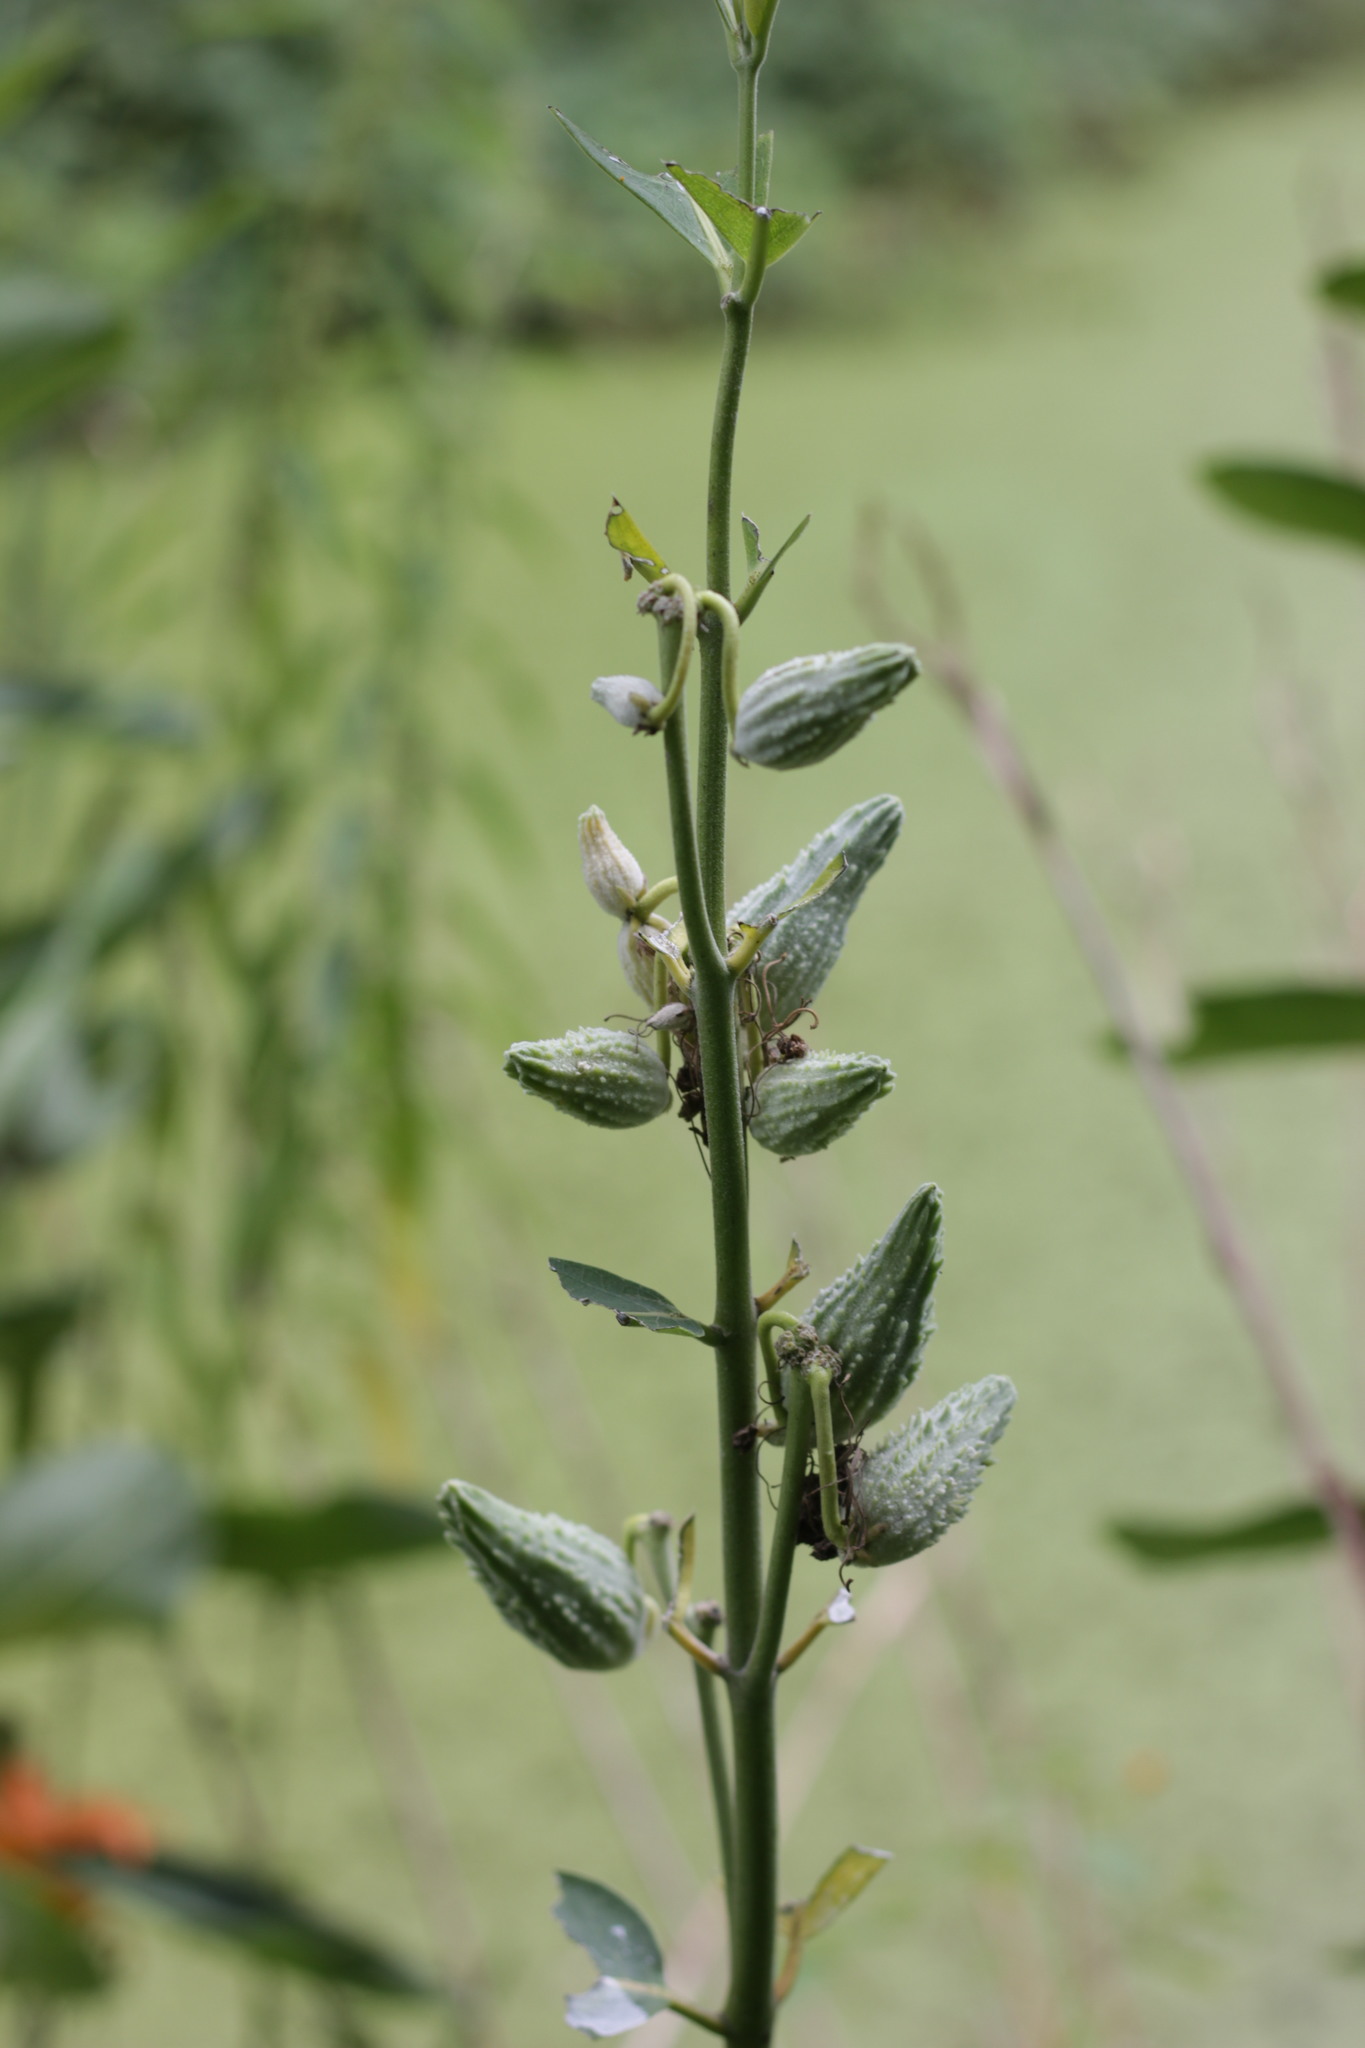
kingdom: Plantae
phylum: Tracheophyta
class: Magnoliopsida
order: Gentianales
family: Apocynaceae
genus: Asclepias
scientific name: Asclepias syriaca
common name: Common milkweed
